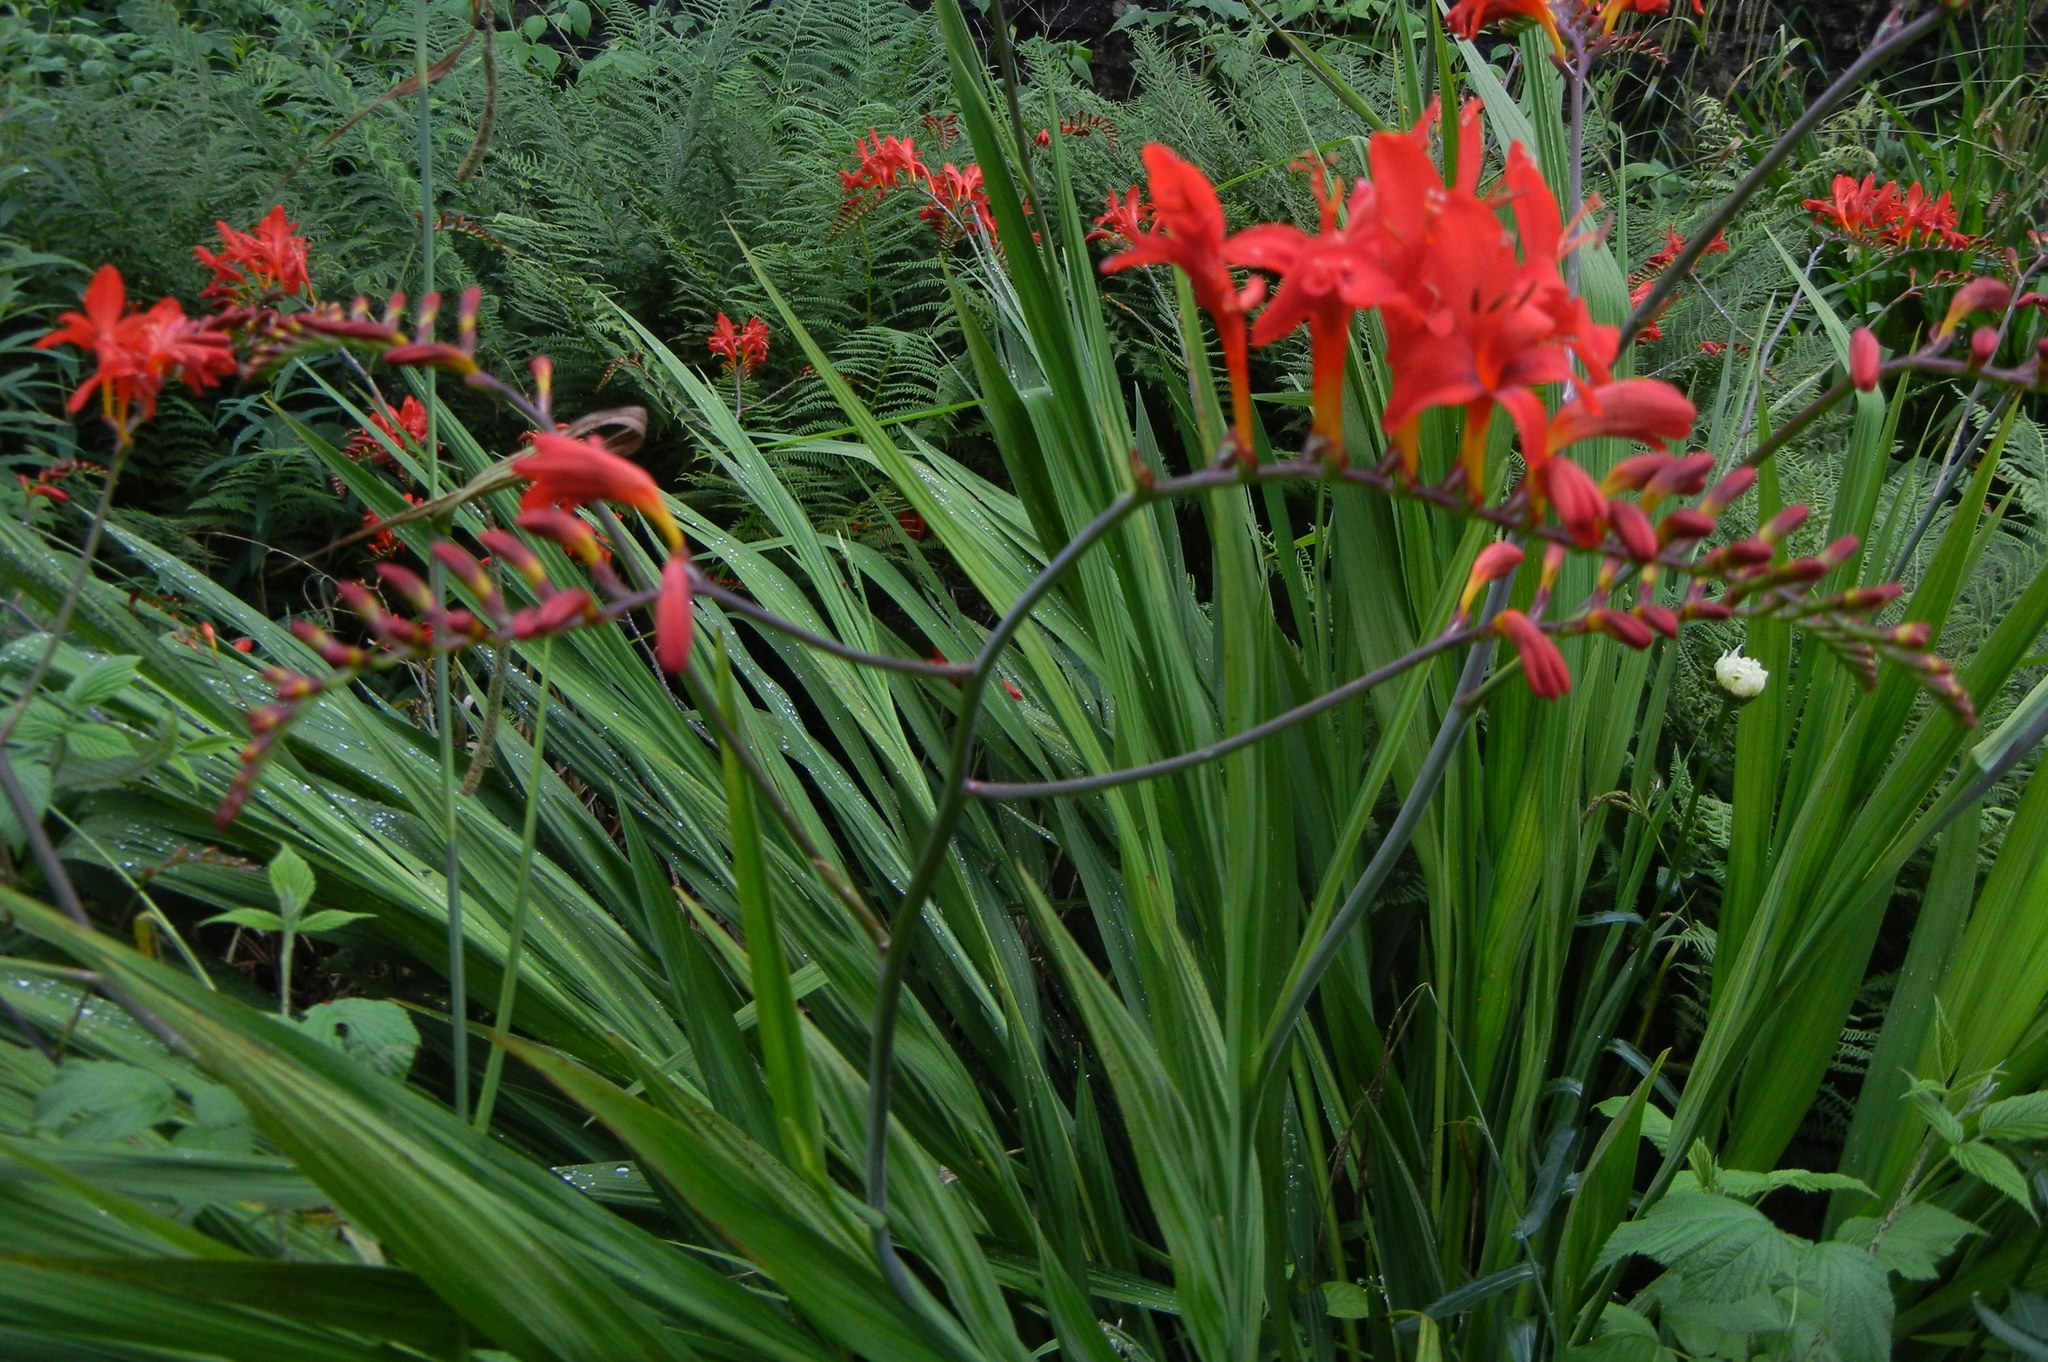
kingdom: Plantae
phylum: Tracheophyta
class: Liliopsida
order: Asparagales
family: Iridaceae
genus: Crocosmia
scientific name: Crocosmia
